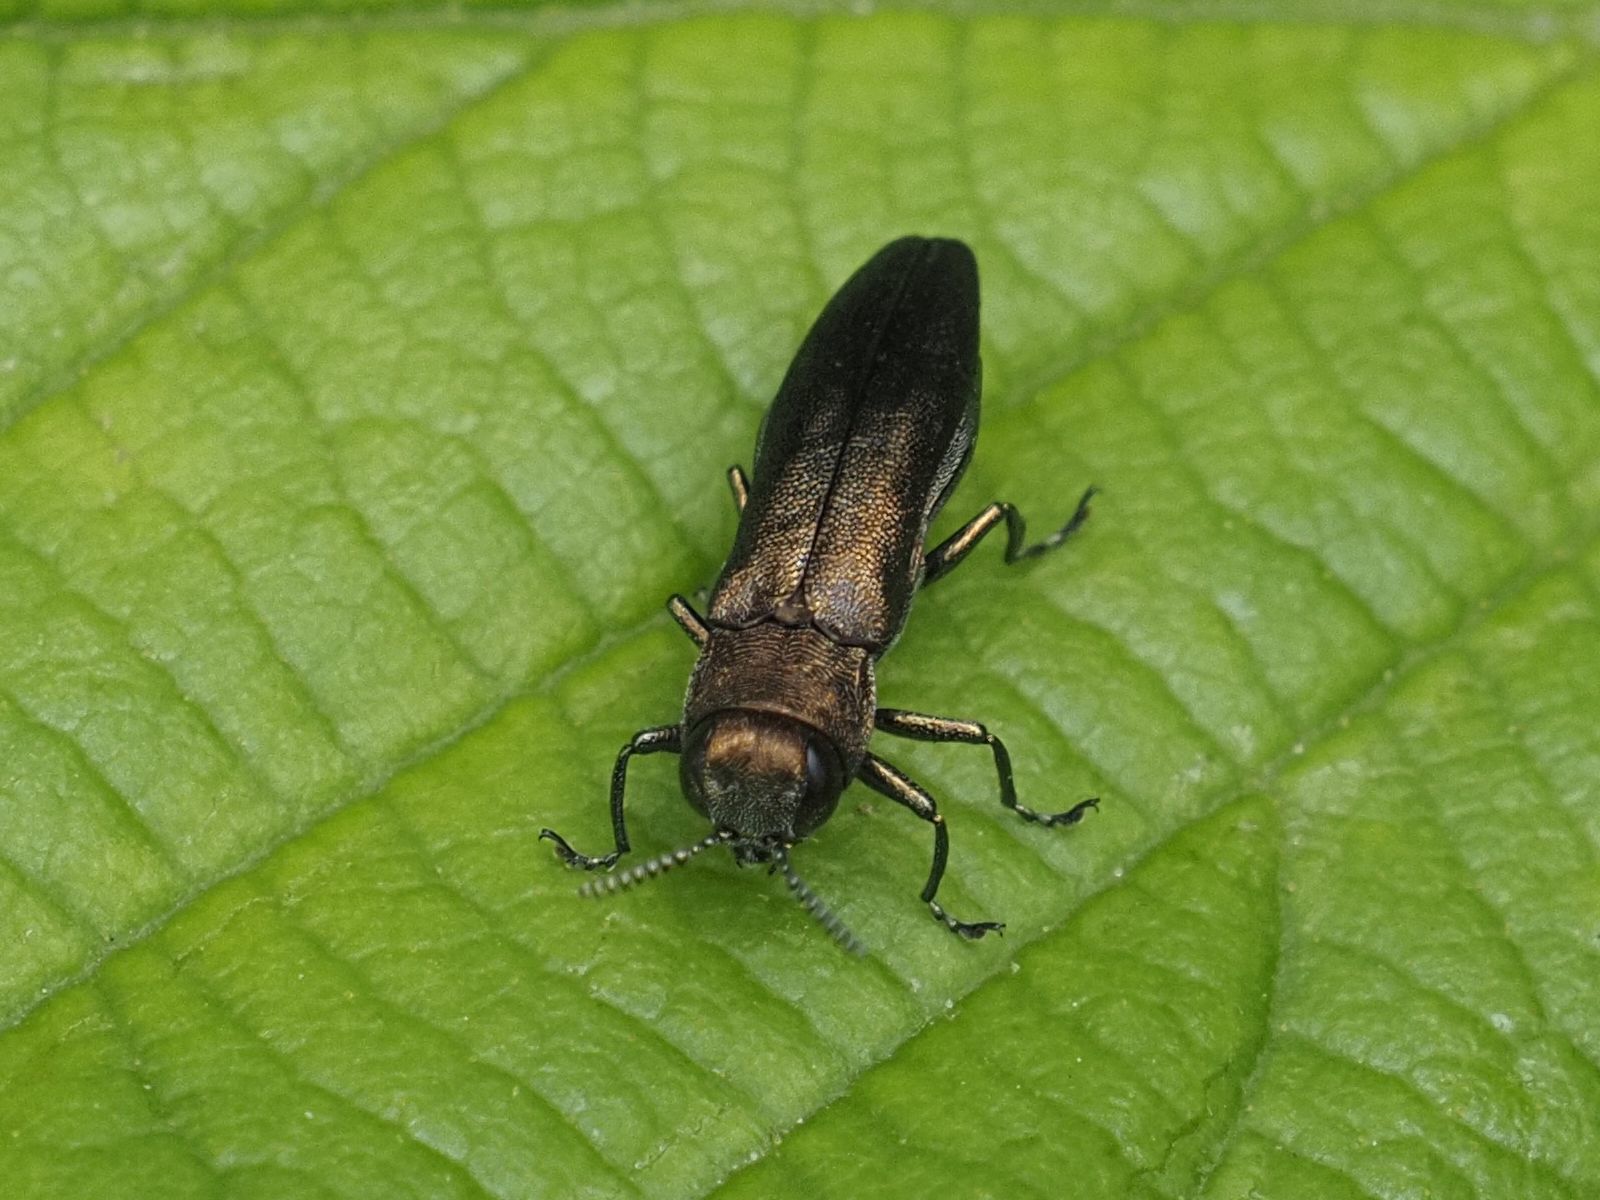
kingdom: Animalia
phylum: Arthropoda
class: Insecta
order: Coleoptera
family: Buprestidae
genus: Agrilus
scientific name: Agrilus cuprescens
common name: Rose stem girdler
